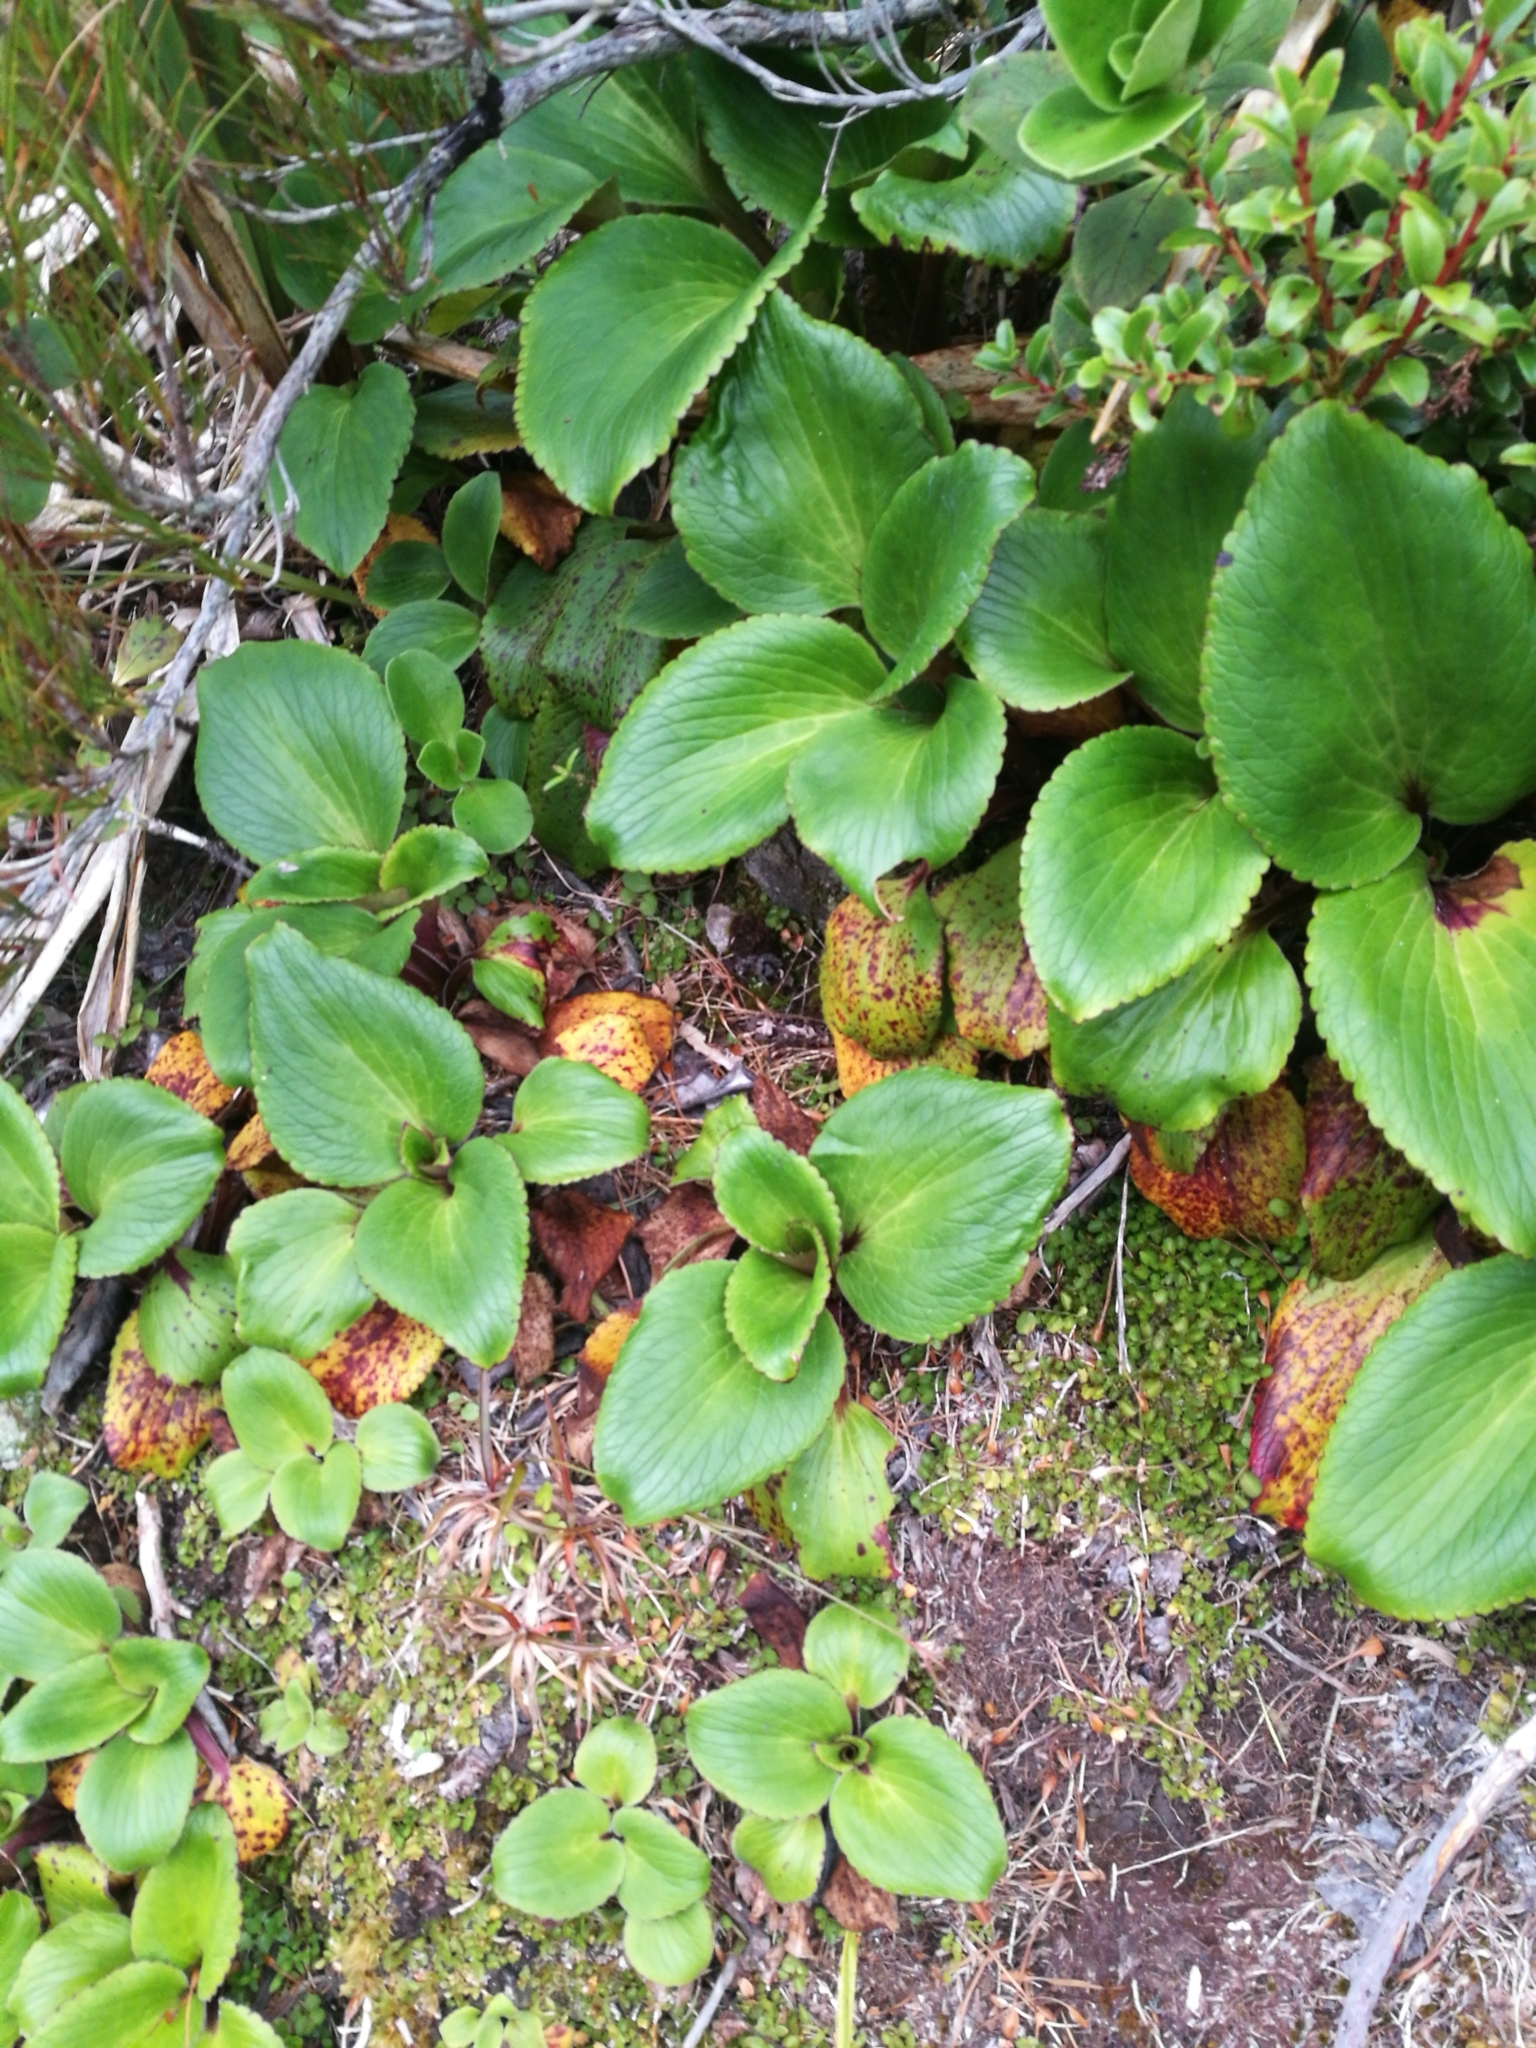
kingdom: Plantae
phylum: Tracheophyta
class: Magnoliopsida
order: Lamiales
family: Plantaginaceae
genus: Ourisia
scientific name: Ourisia calycina
